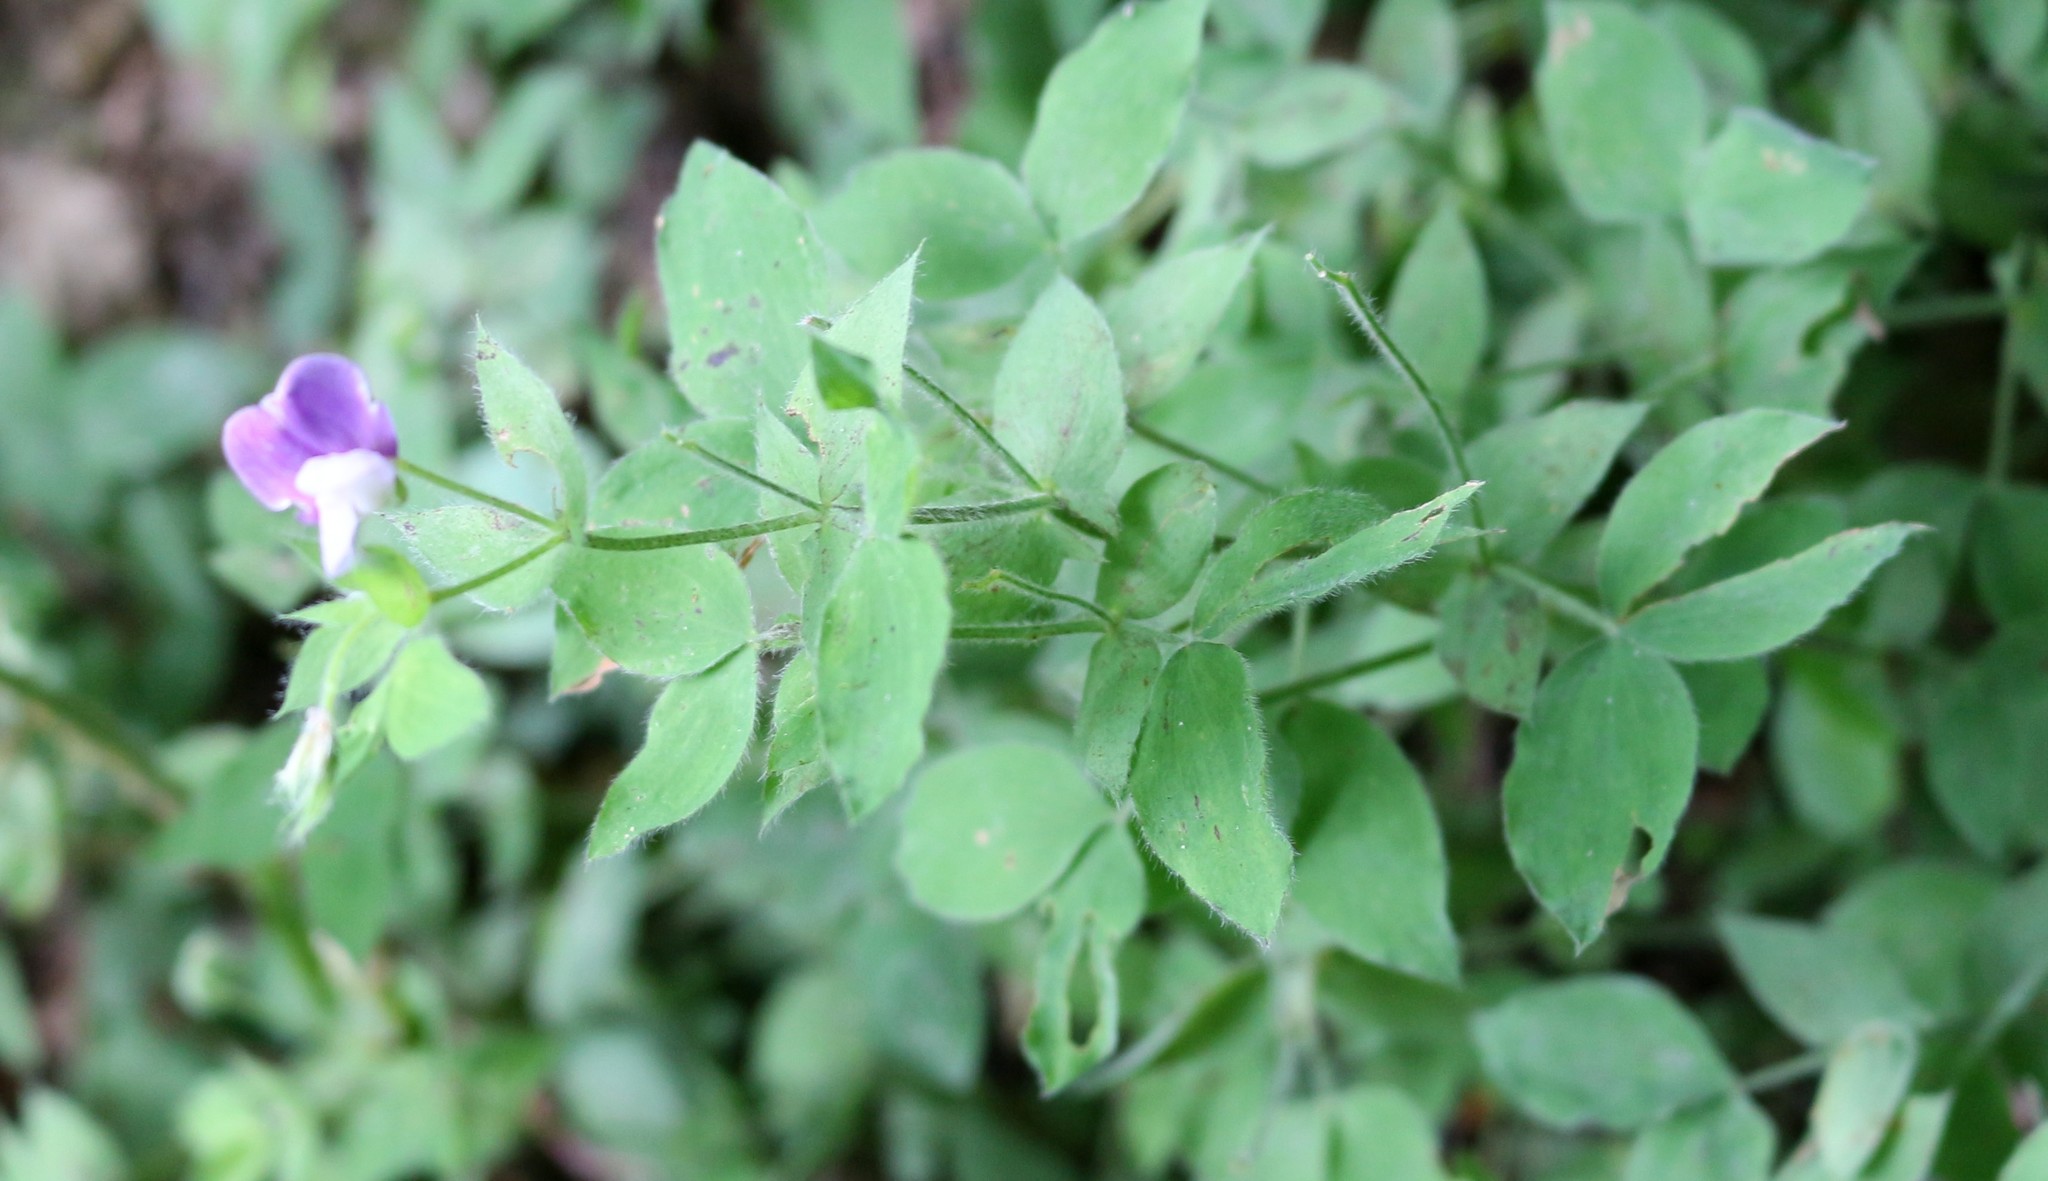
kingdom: Plantae
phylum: Tracheophyta
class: Magnoliopsida
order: Fabales
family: Fabaceae
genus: Lathyrus
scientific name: Lathyrus laxiflorus
